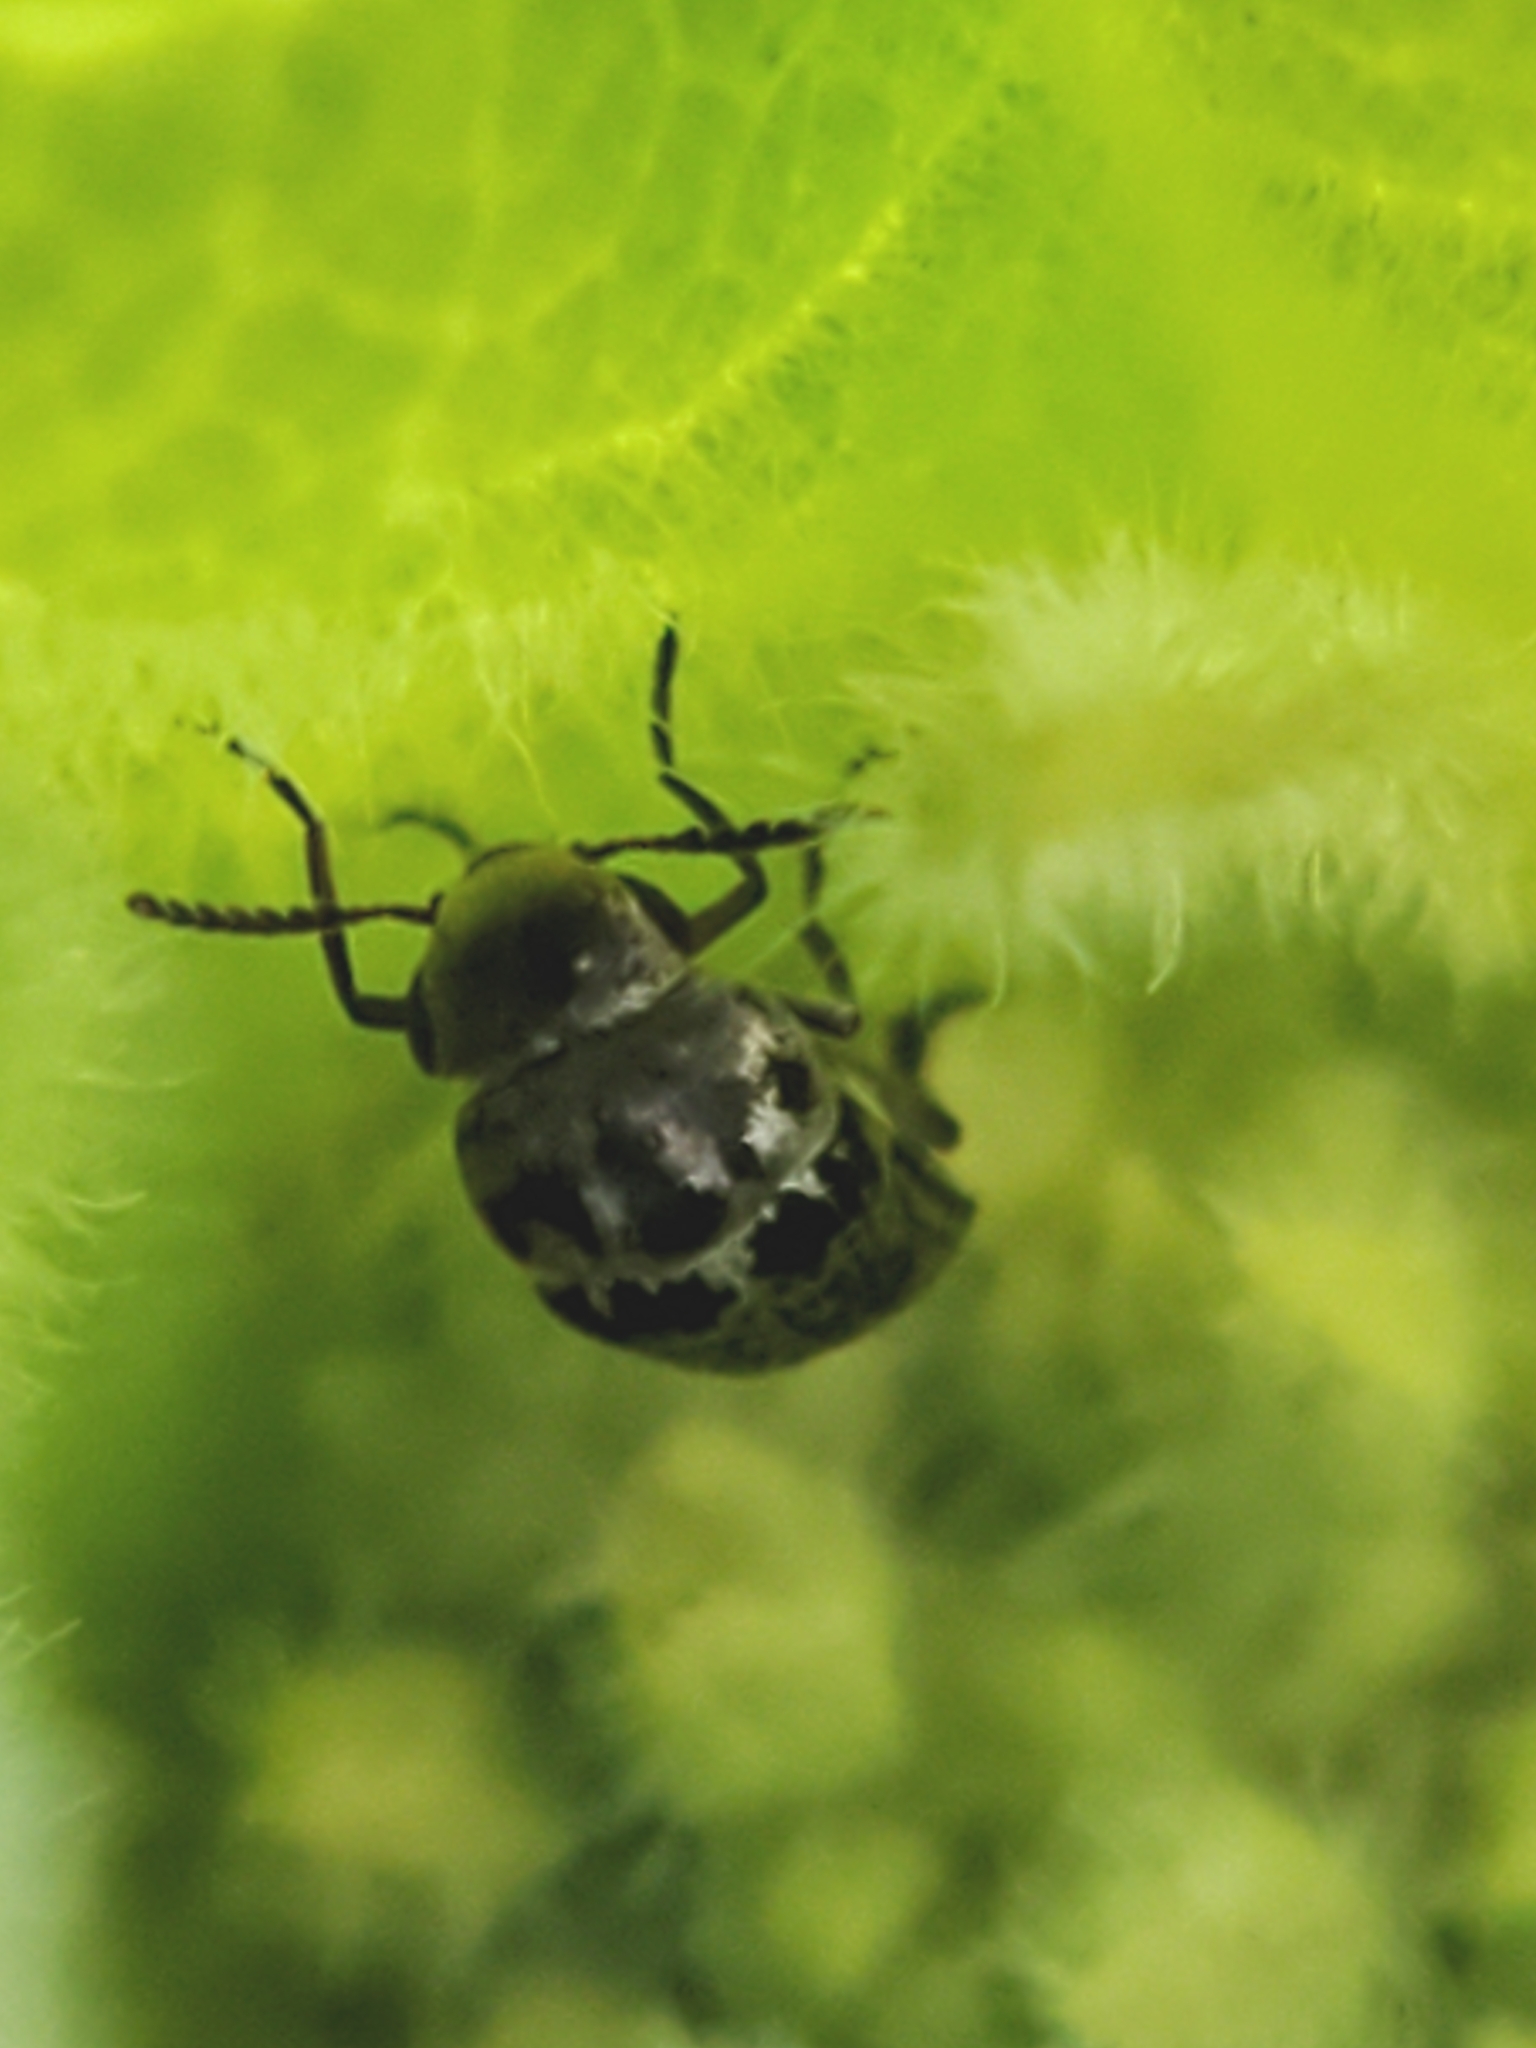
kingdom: Animalia
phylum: Arthropoda
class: Insecta
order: Coleoptera
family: Mordellidae
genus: Mordella
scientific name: Mordella marginata
